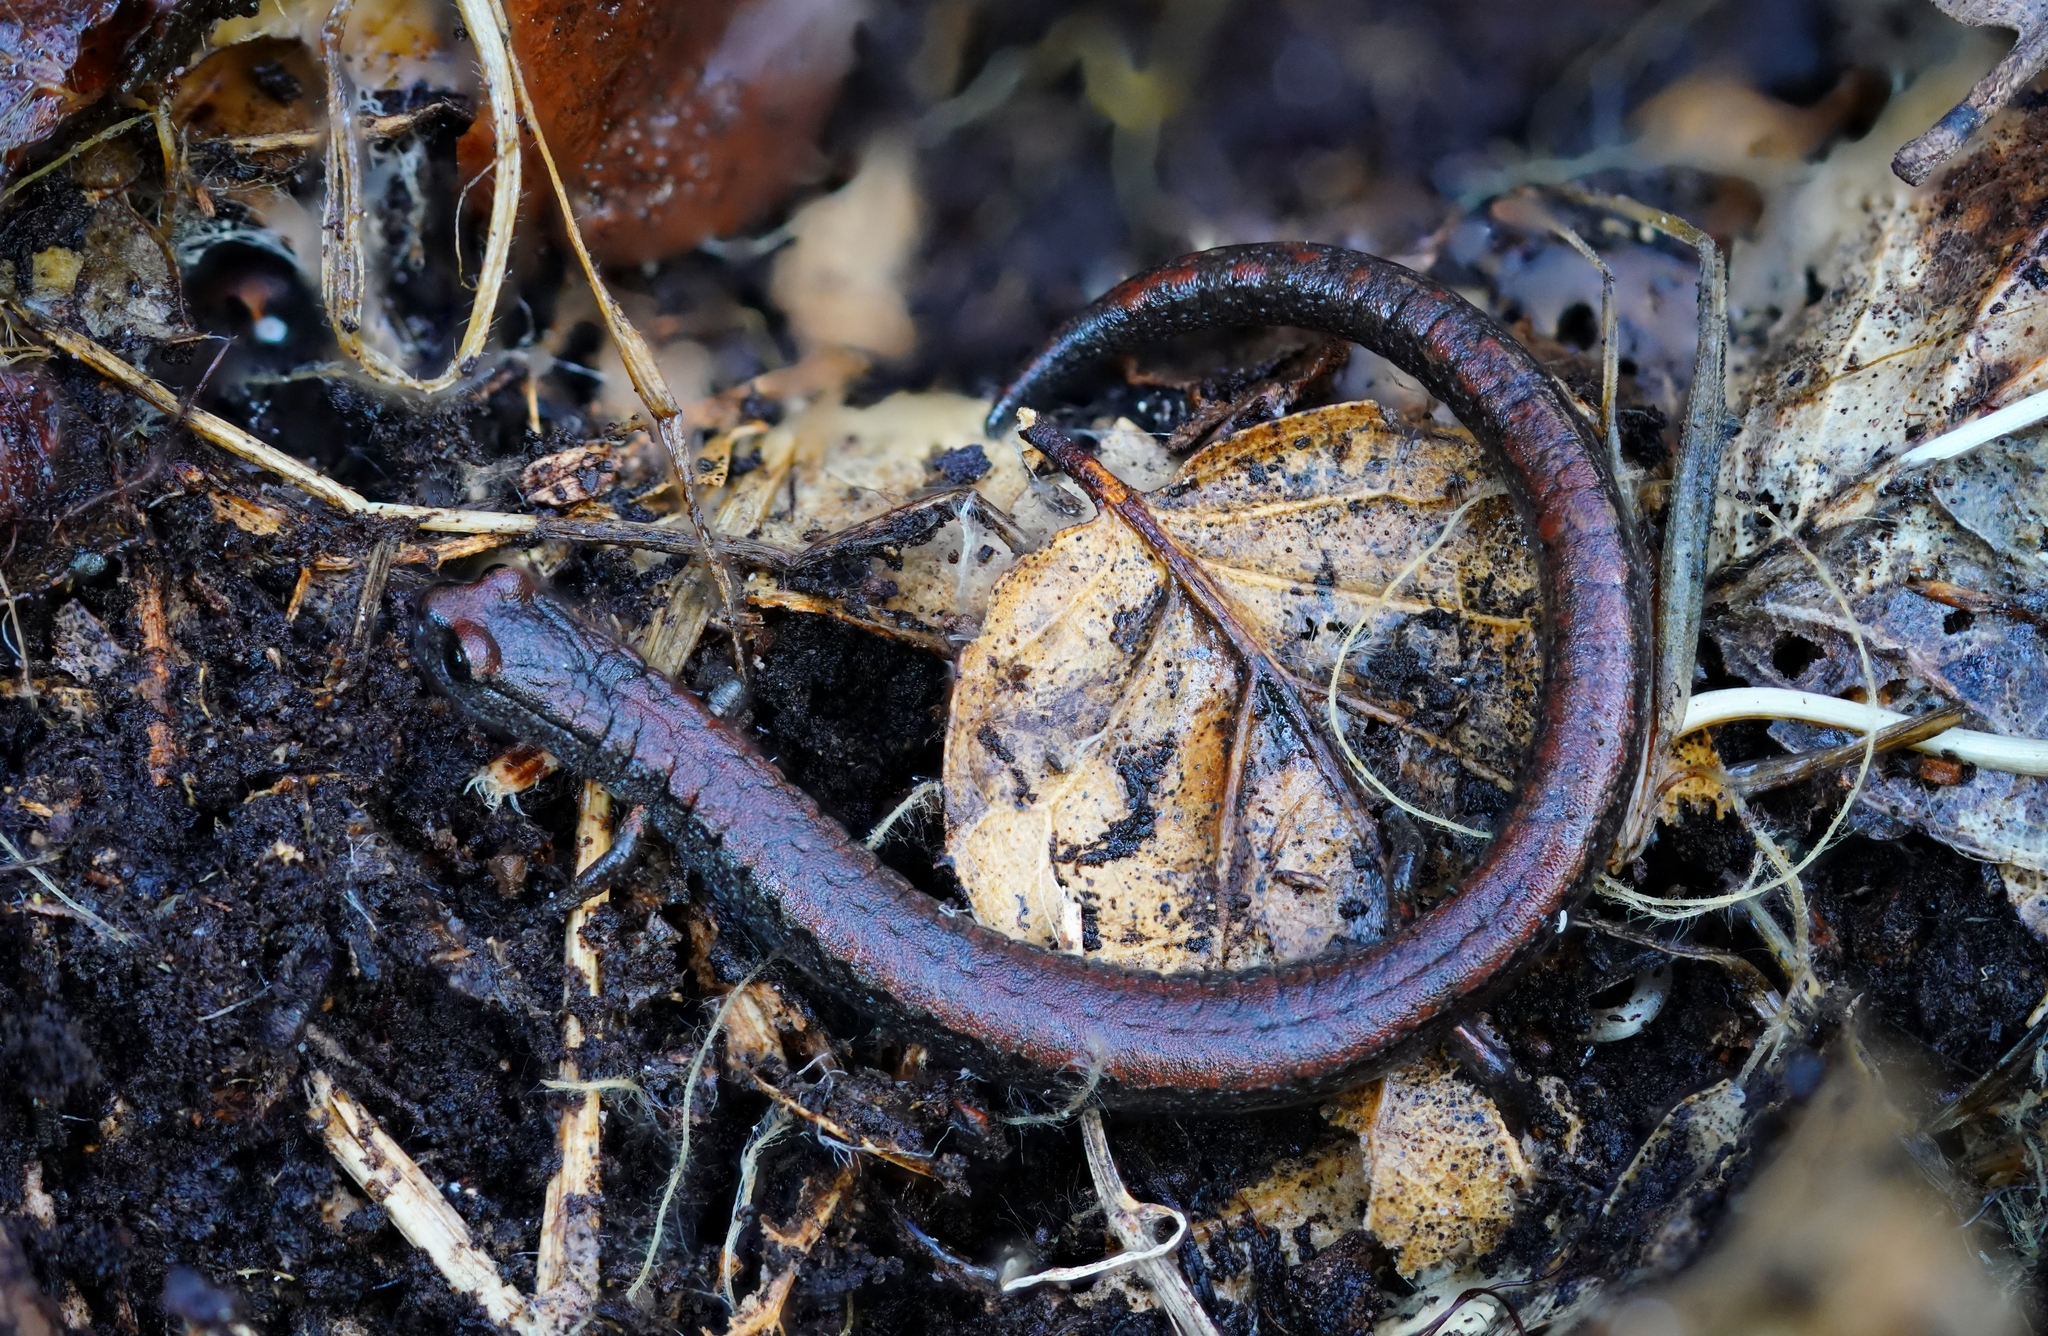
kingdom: Animalia
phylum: Chordata
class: Amphibia
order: Caudata
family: Plethodontidae
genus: Batrachoseps
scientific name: Batrachoseps attenuatus
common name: California slender salamander
